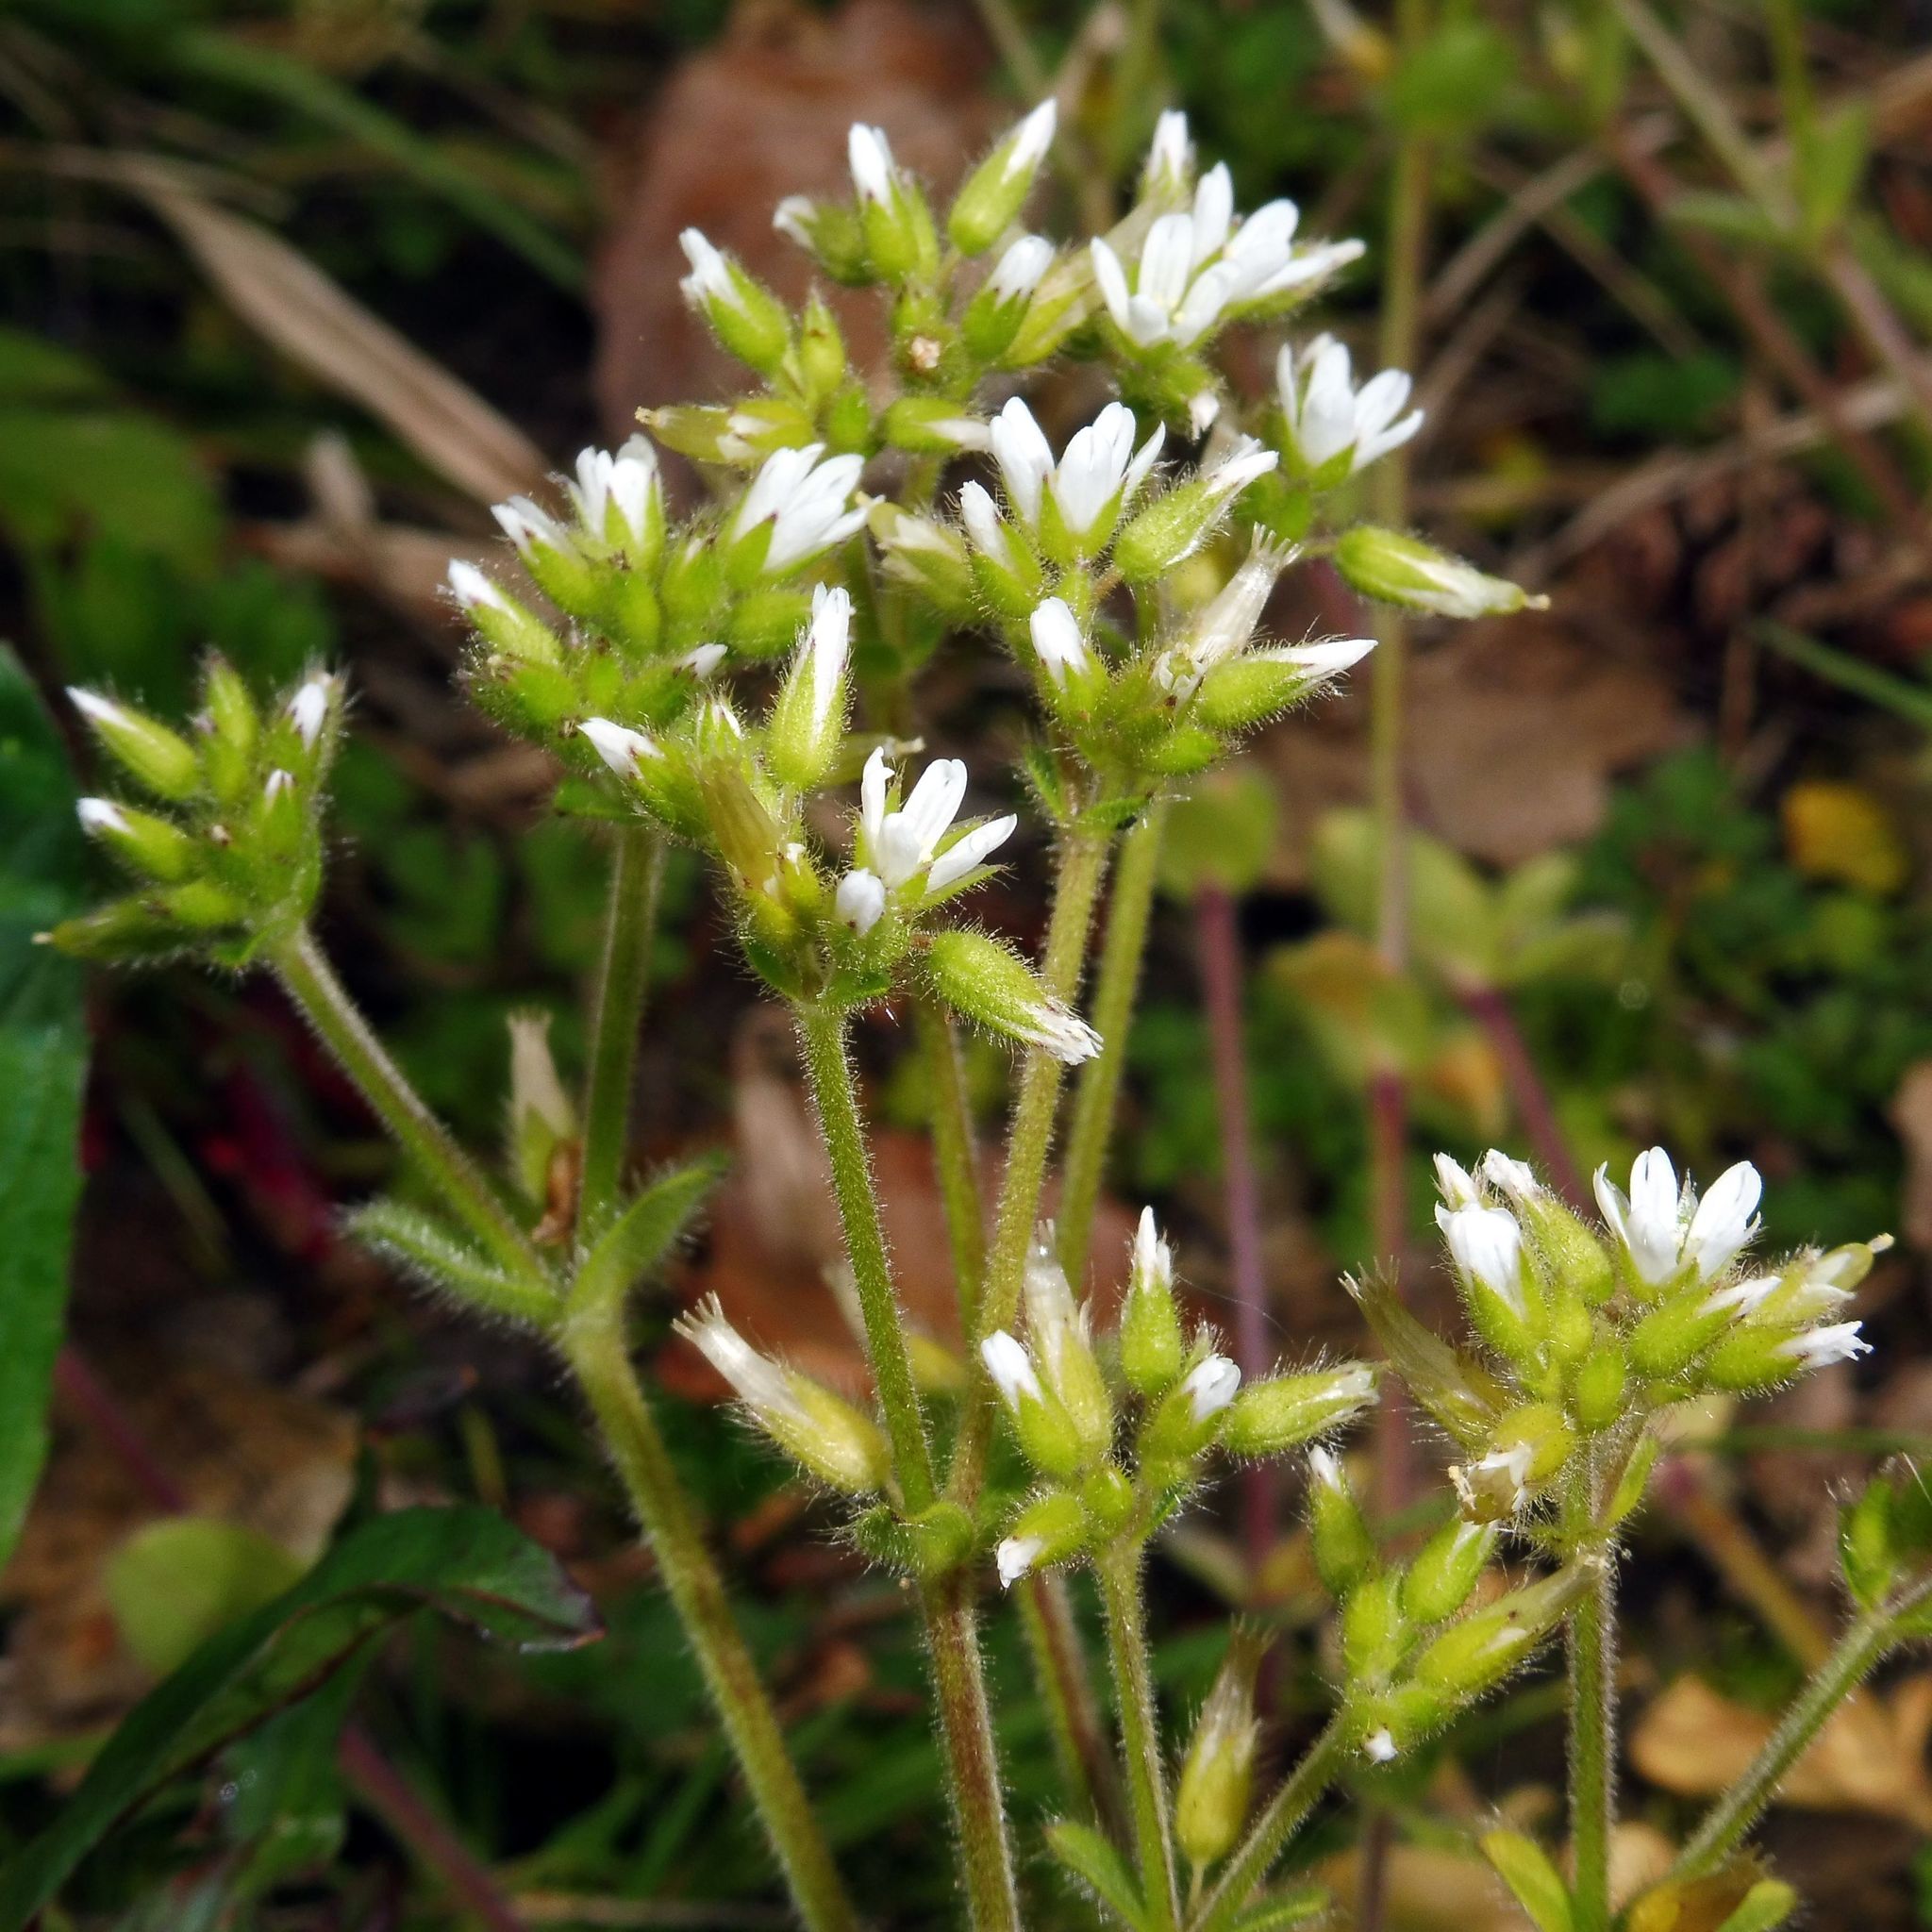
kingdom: Plantae
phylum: Tracheophyta
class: Magnoliopsida
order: Caryophyllales
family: Caryophyllaceae
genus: Cerastium
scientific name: Cerastium glomeratum
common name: Sticky chickweed
